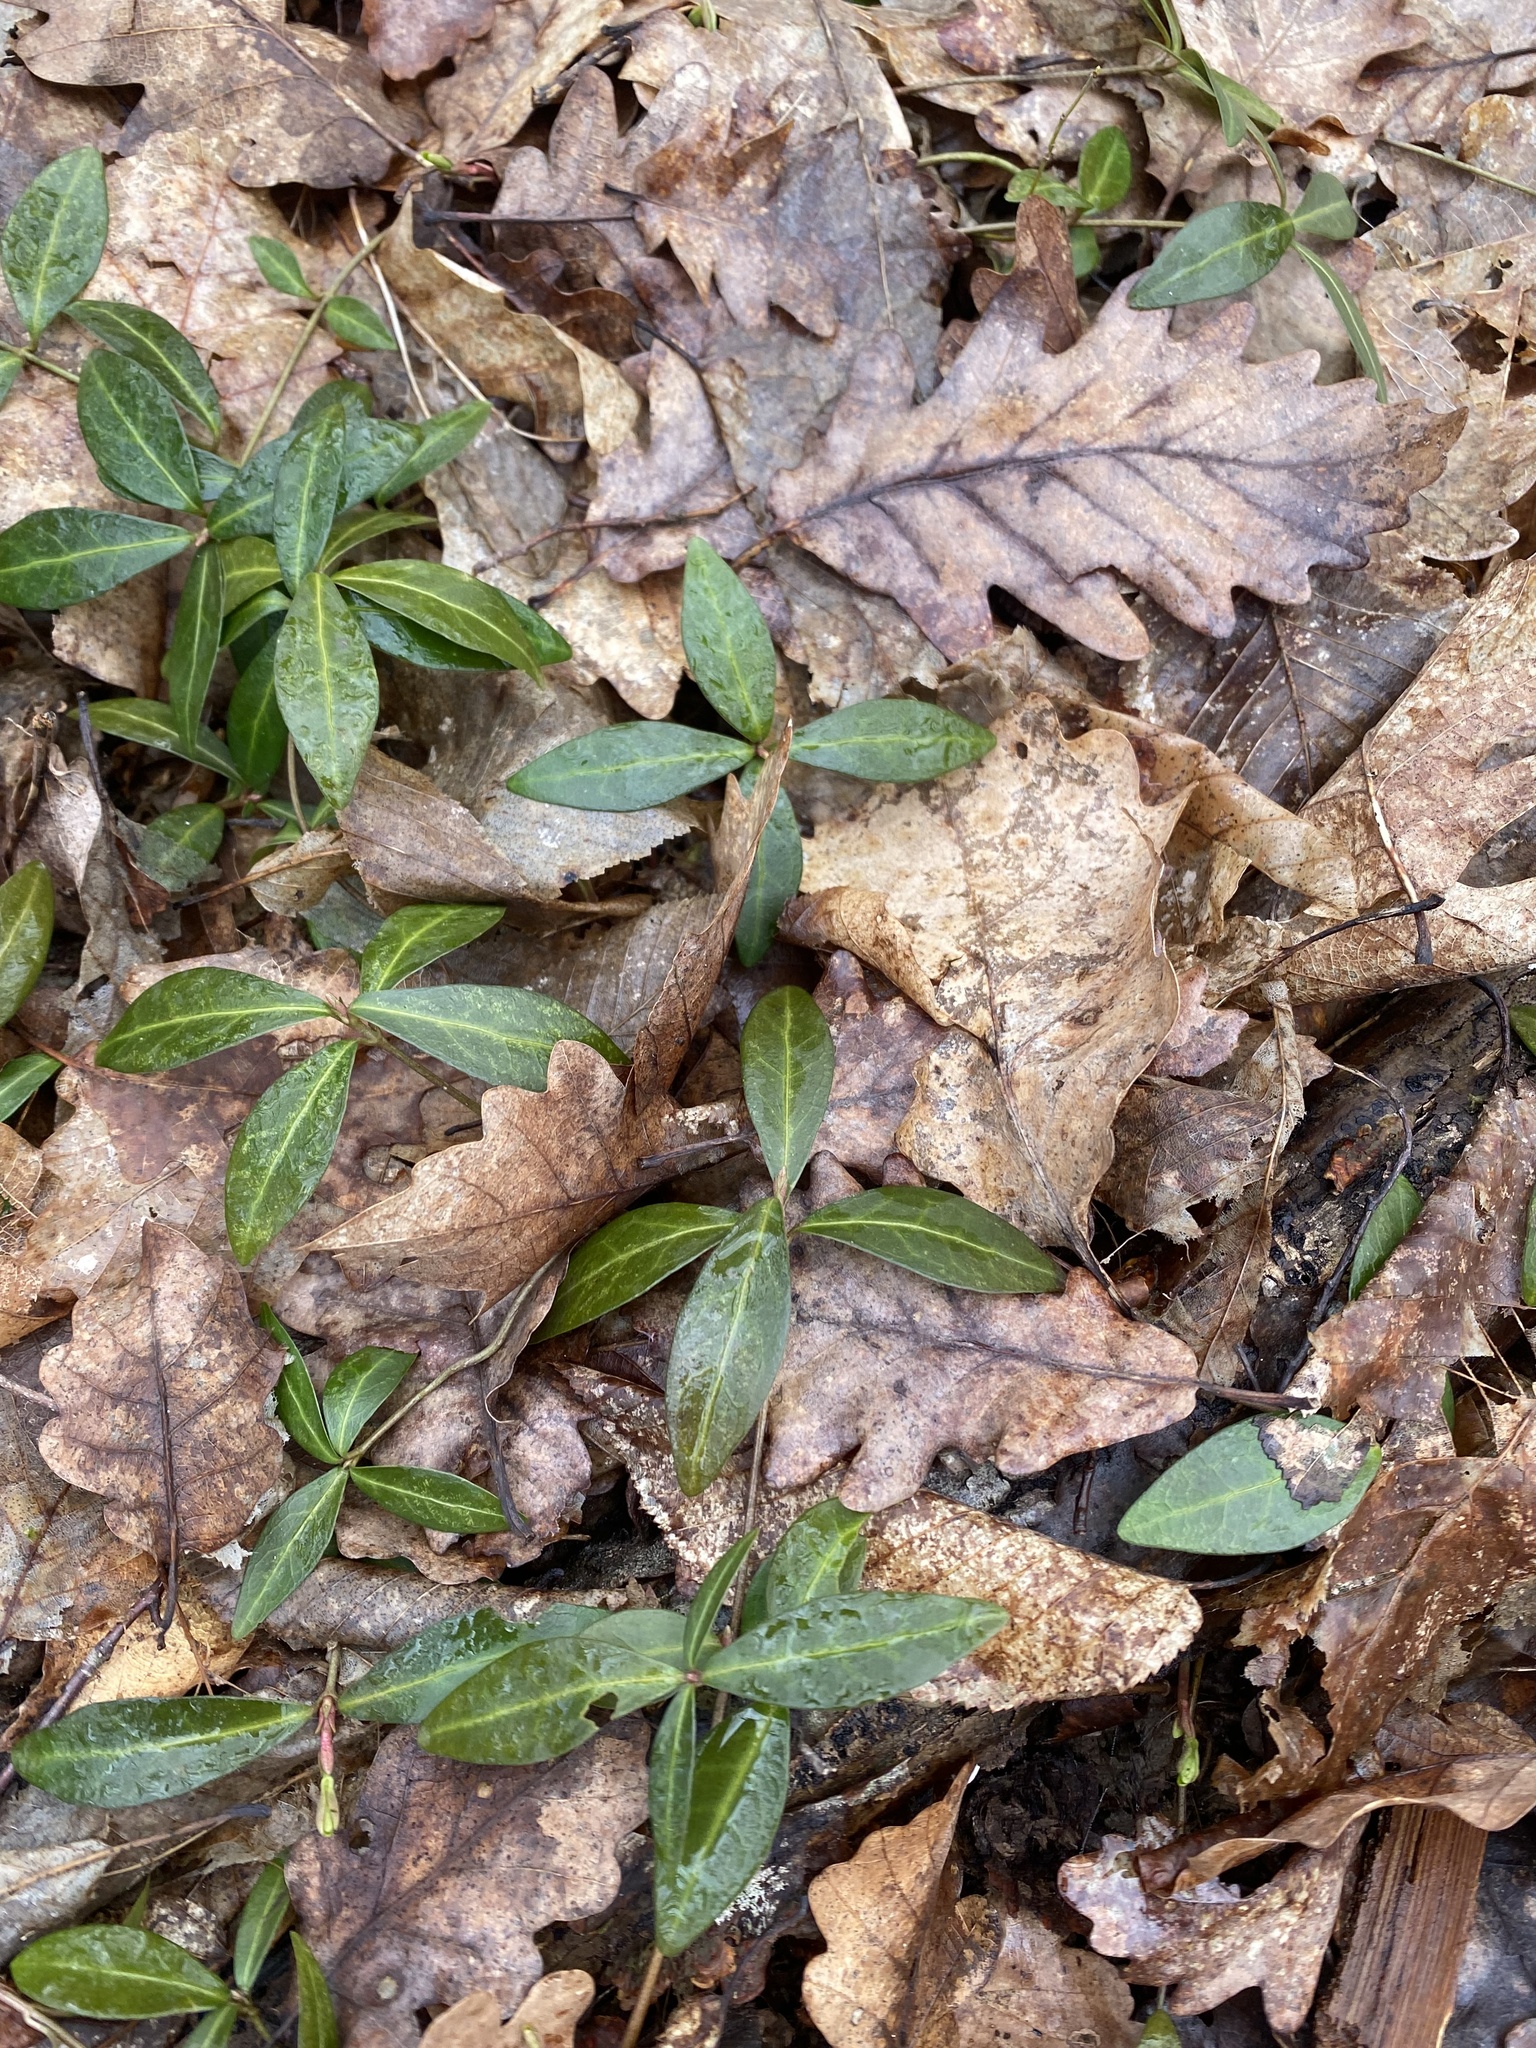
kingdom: Plantae
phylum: Tracheophyta
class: Magnoliopsida
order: Gentianales
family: Apocynaceae
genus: Vinca
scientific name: Vinca minor
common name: Lesser periwinkle
